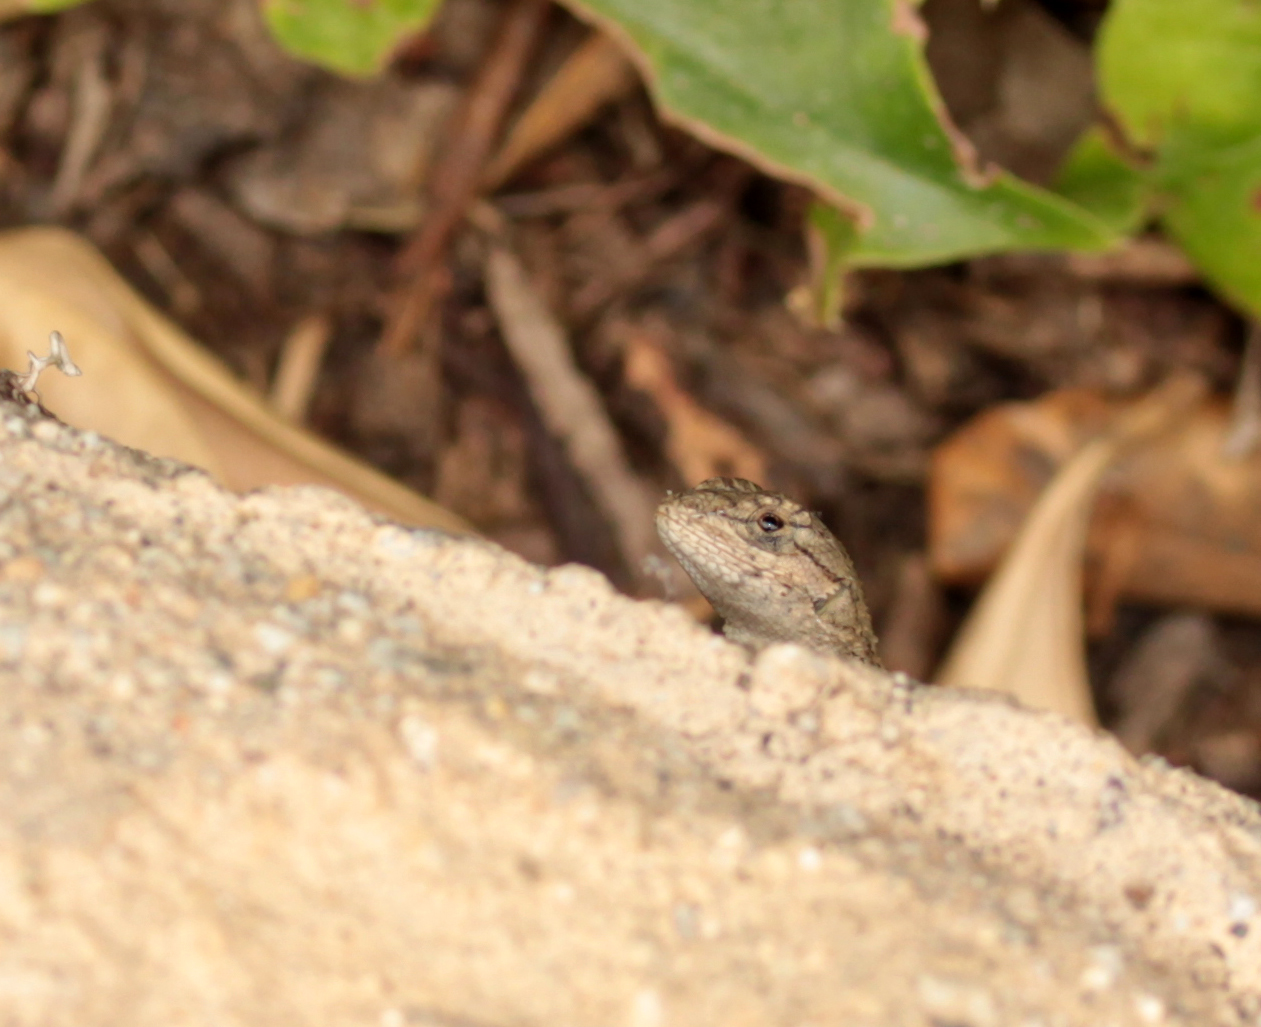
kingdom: Animalia
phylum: Chordata
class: Squamata
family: Phrynosomatidae
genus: Sceloporus
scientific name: Sceloporus occidentalis
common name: Western fence lizard
